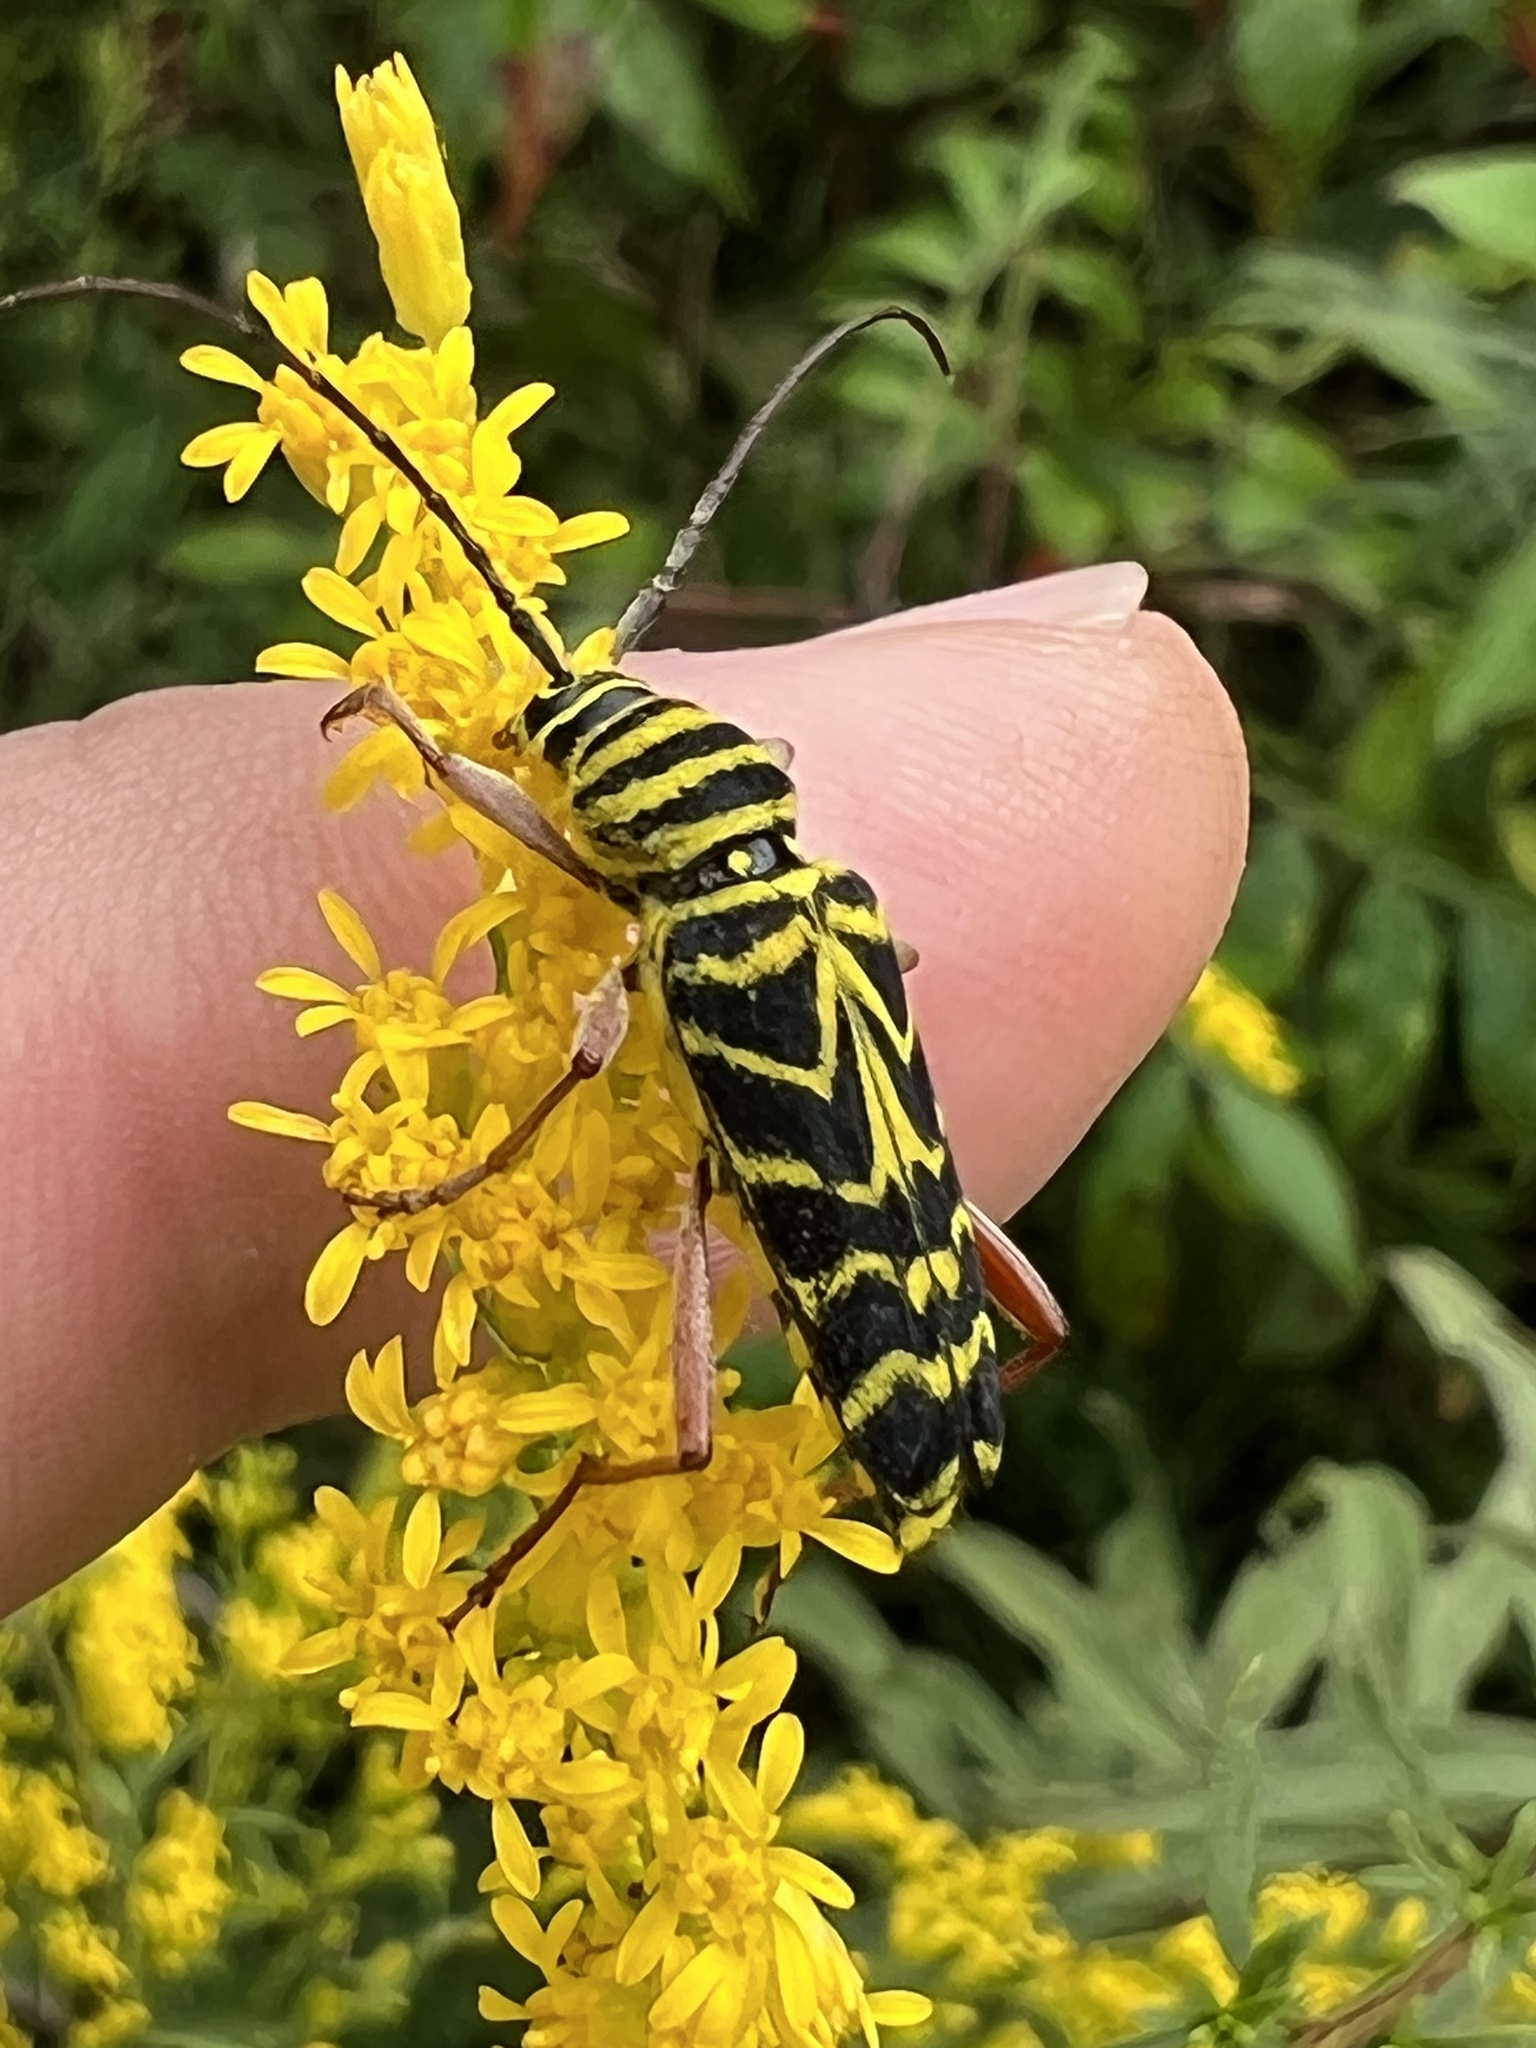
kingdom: Animalia
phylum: Arthropoda
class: Insecta
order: Coleoptera
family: Cerambycidae
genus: Megacyllene
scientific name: Megacyllene robiniae
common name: Locust borer
